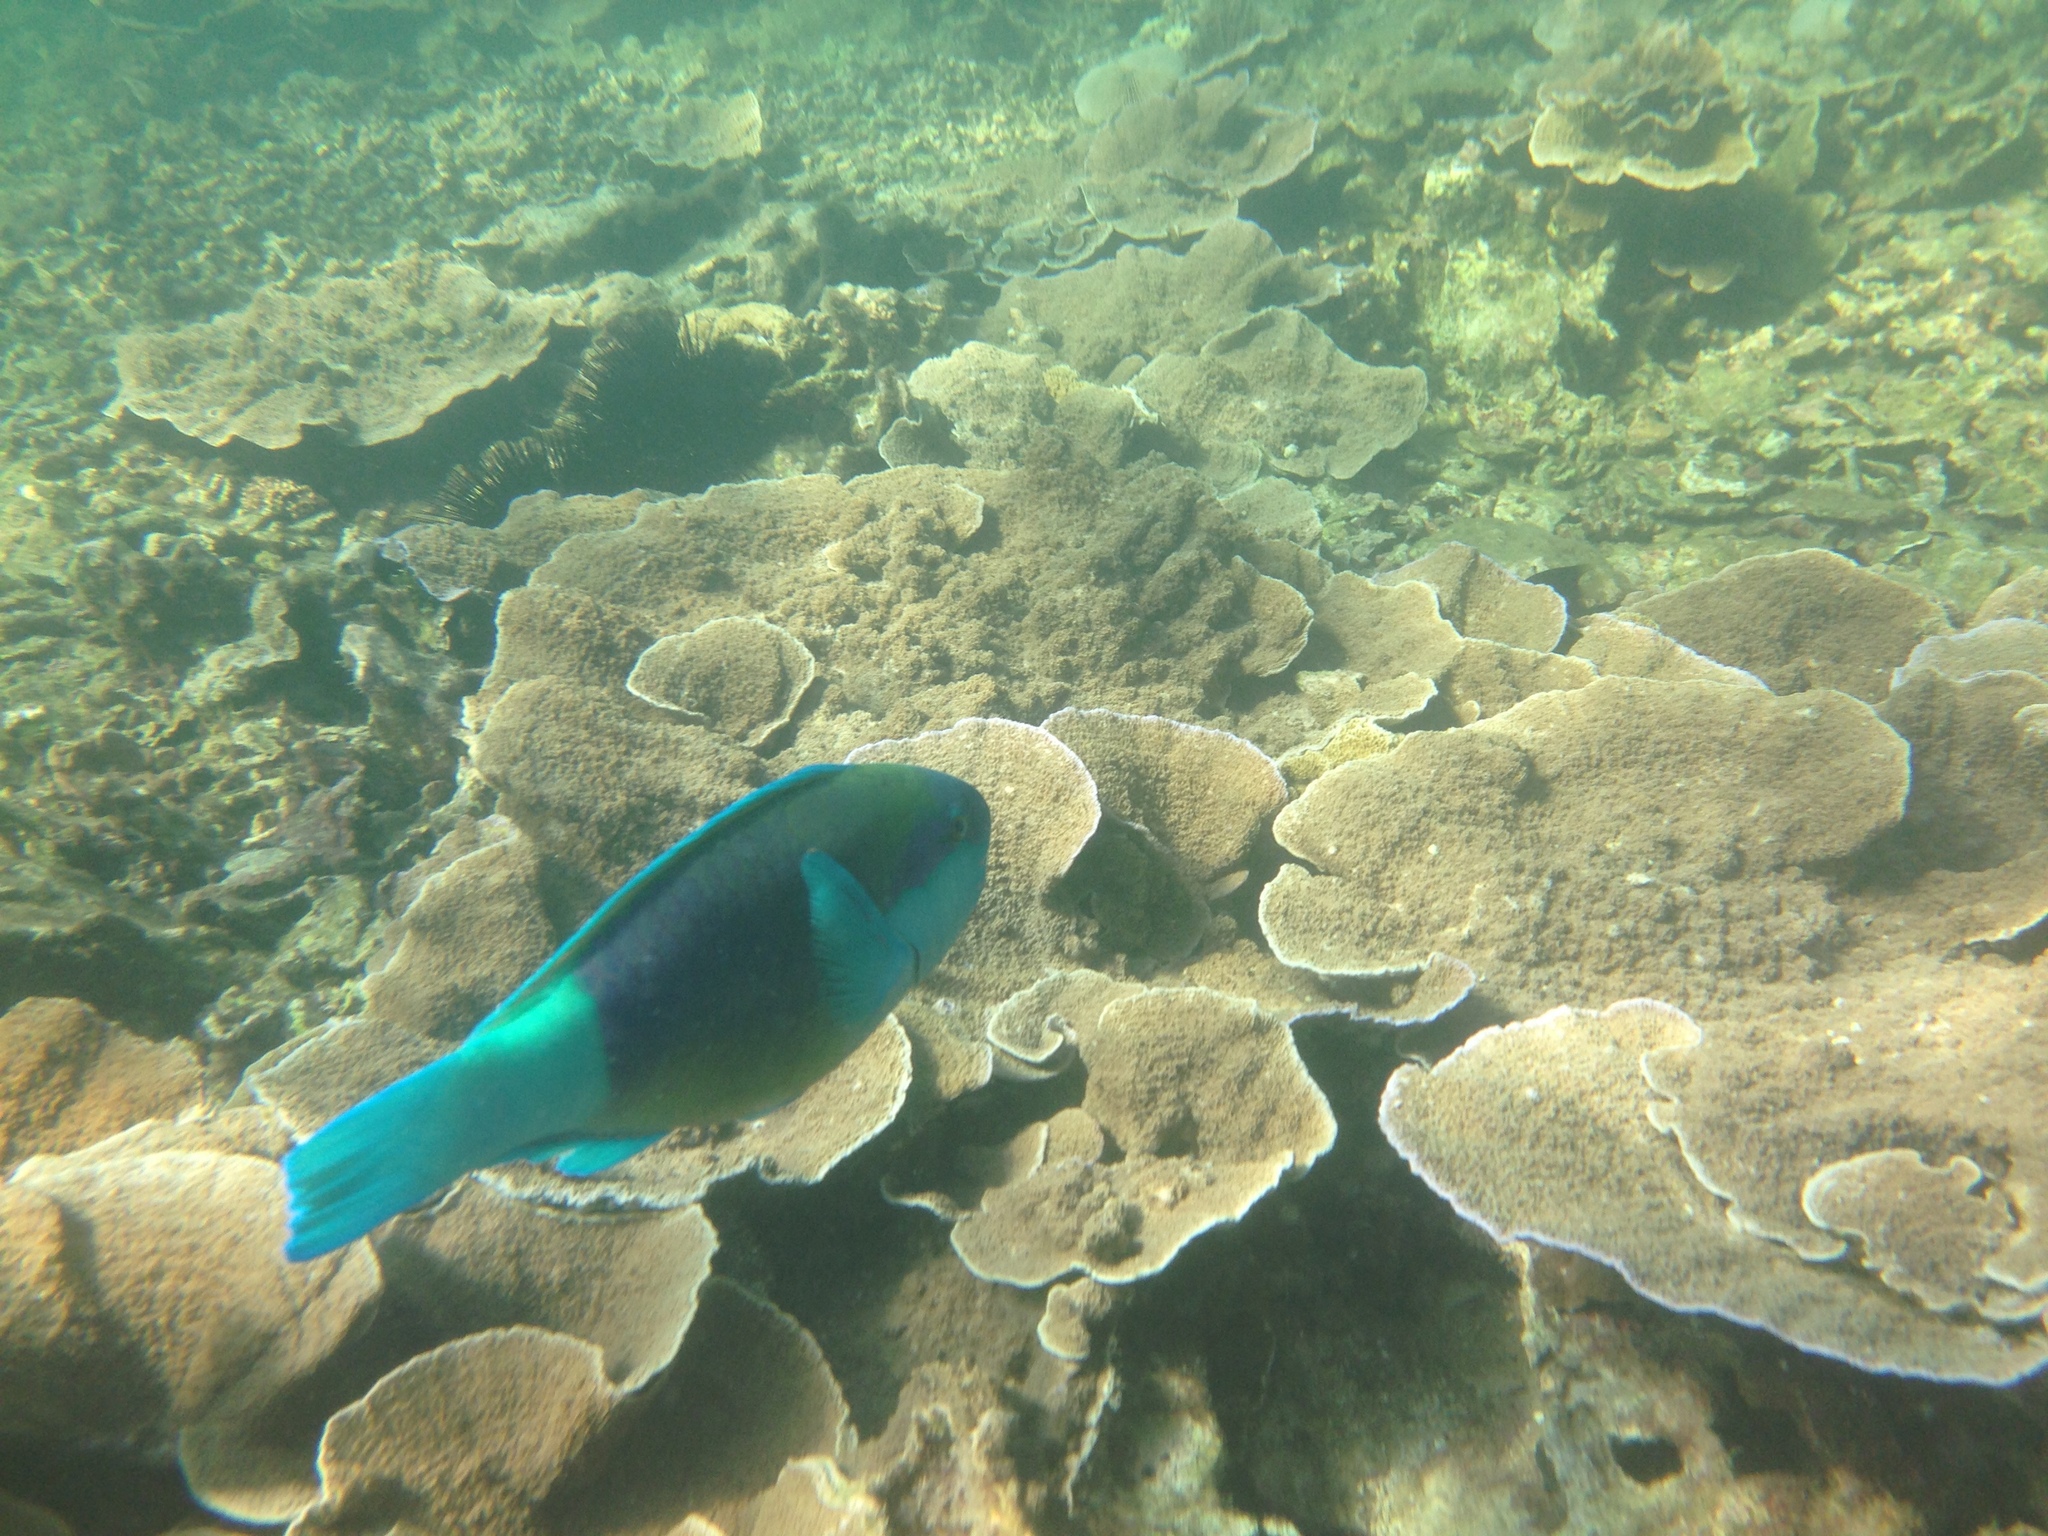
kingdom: Animalia
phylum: Chordata
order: Perciformes
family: Scaridae
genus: Chlorurus
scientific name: Chlorurus sordidus
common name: Bullethead parrotfish
